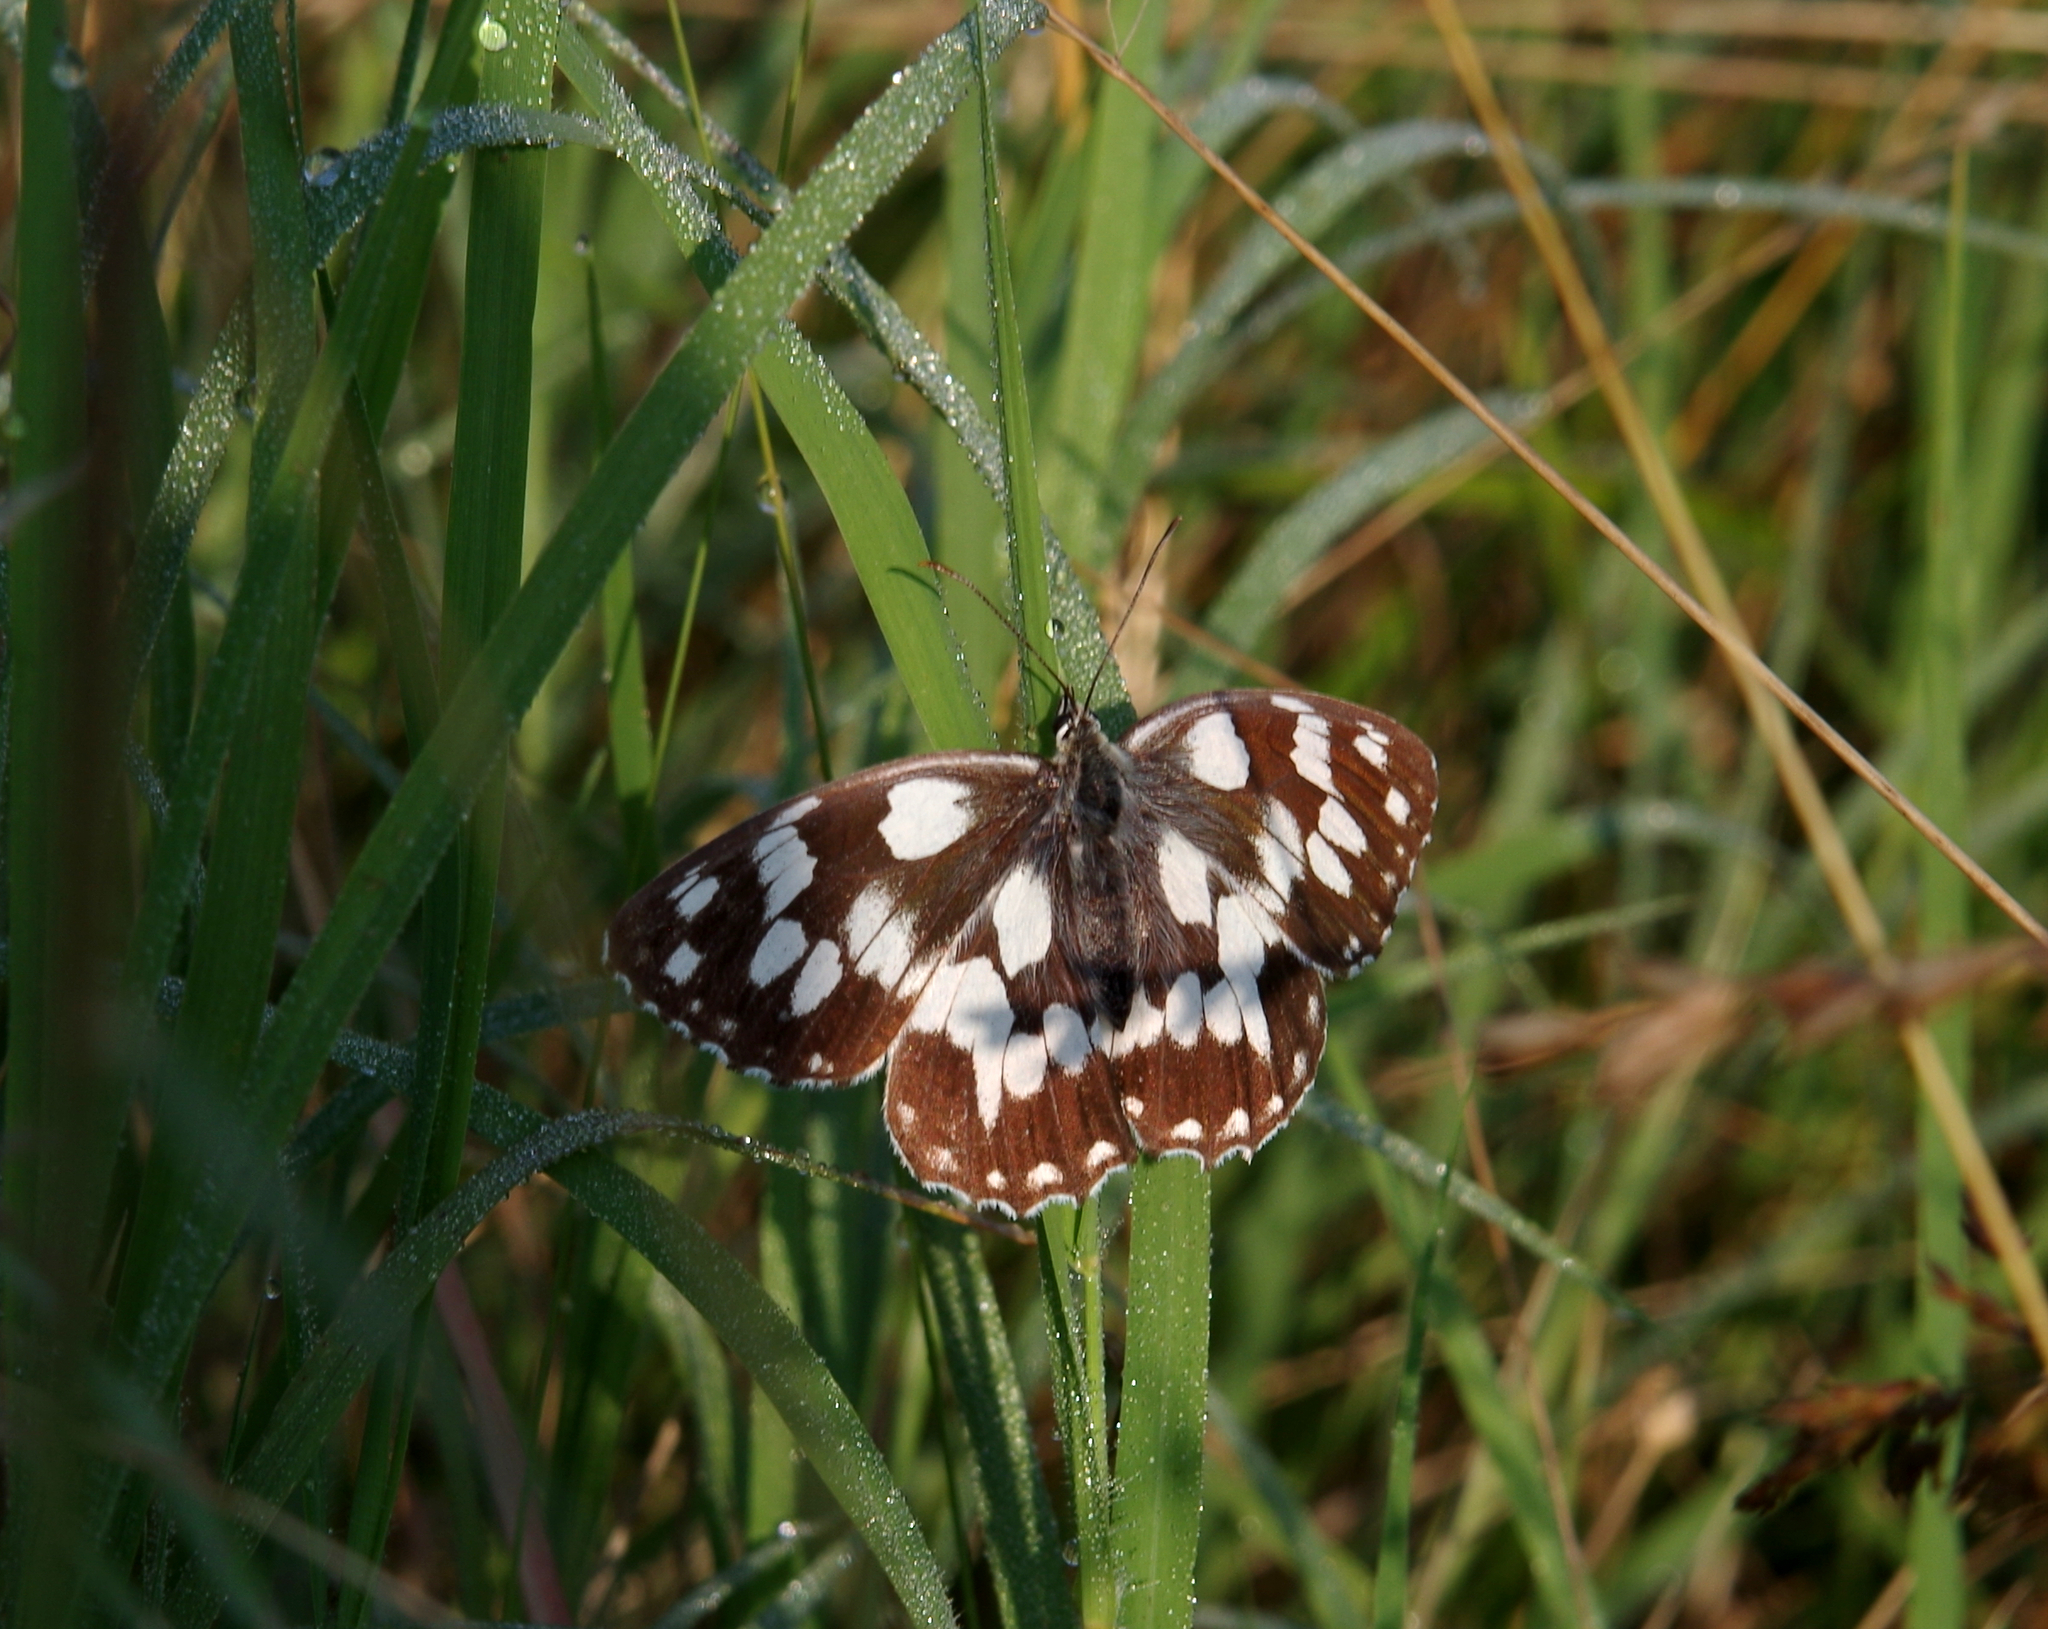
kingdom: Animalia
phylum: Arthropoda
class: Insecta
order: Lepidoptera
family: Nymphalidae
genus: Melanargia
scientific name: Melanargia galathea
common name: Marbled white
